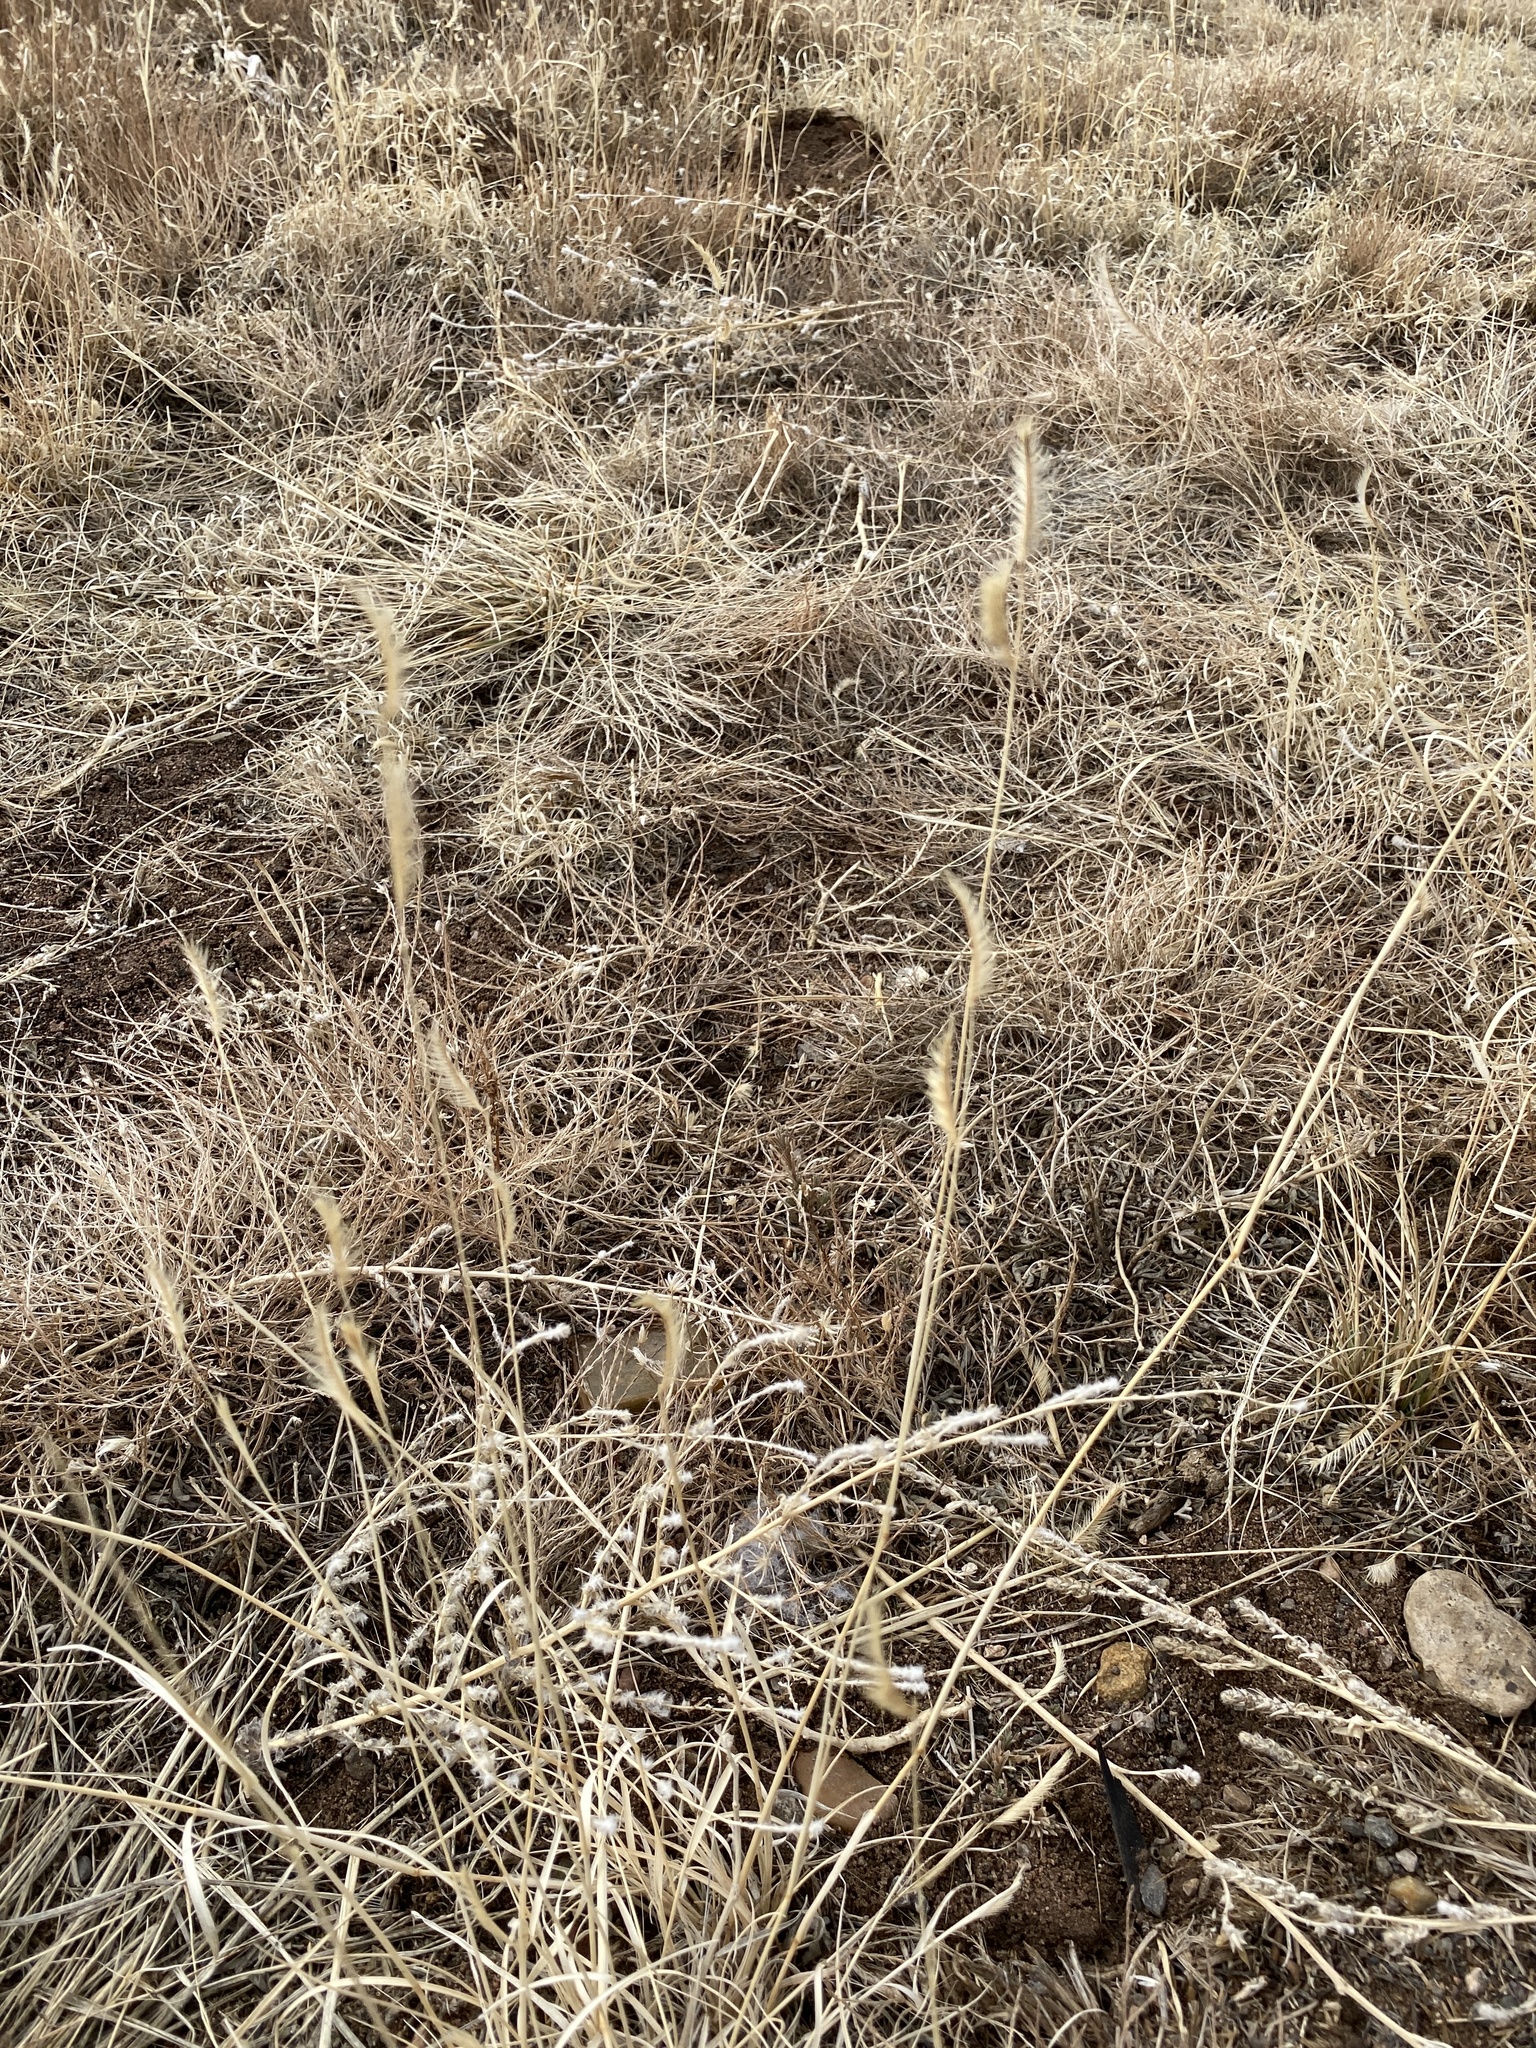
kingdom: Plantae
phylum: Tracheophyta
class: Liliopsida
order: Poales
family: Poaceae
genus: Bouteloua
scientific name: Bouteloua gracilis
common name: Blue grama
